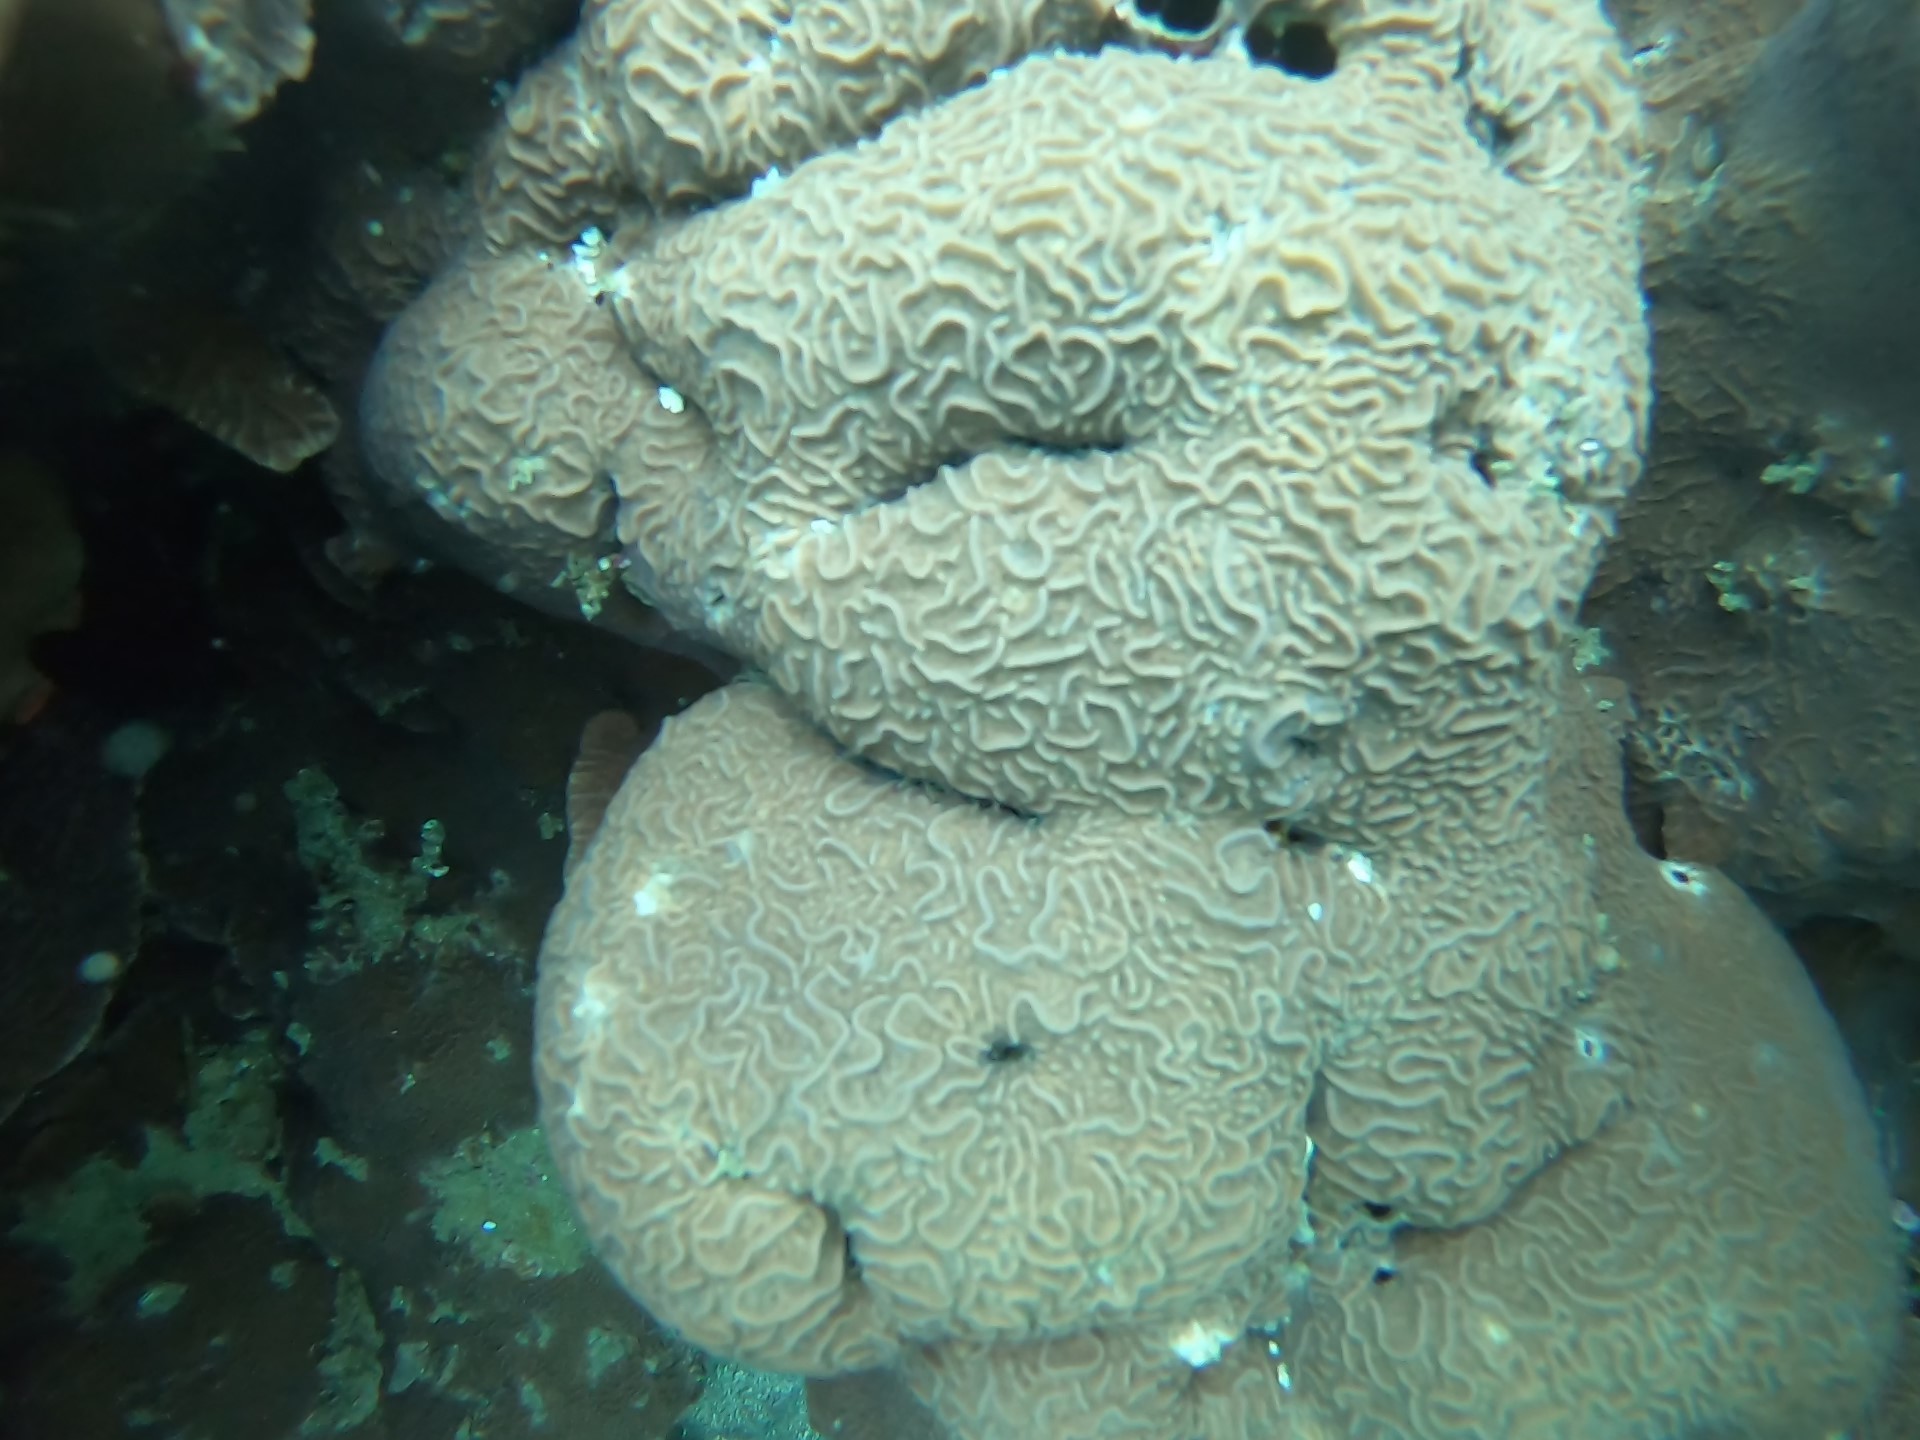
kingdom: Animalia
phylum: Cnidaria
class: Anthozoa
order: Scleractinia
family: Agariciidae
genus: Pavona
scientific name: Pavona varians
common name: Leaf coral
